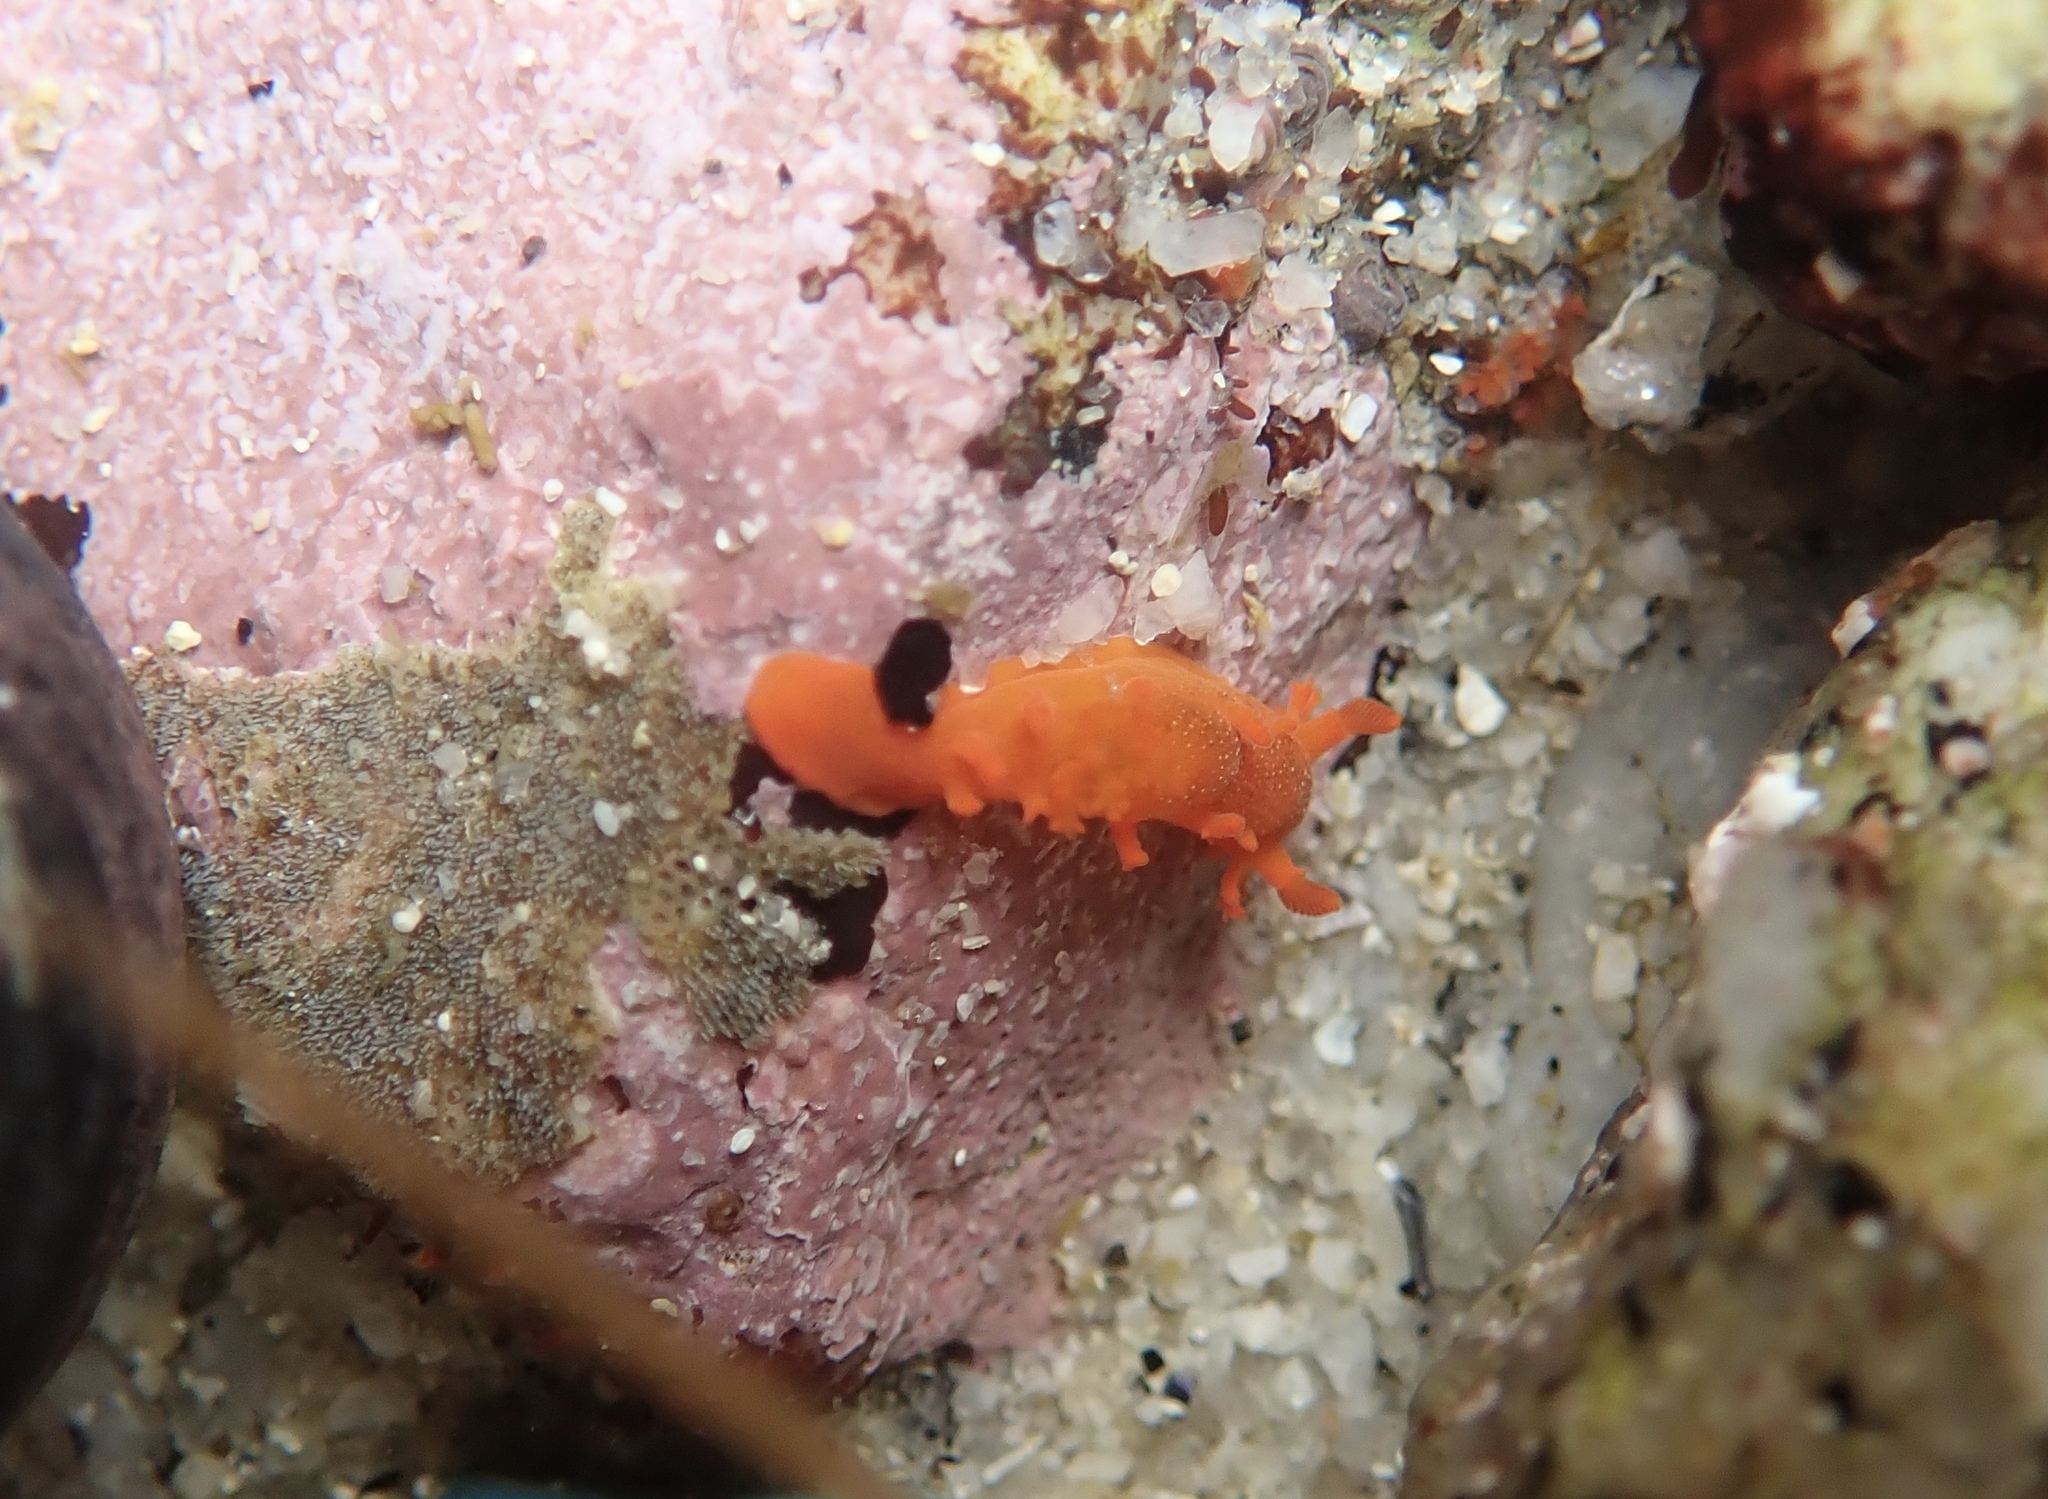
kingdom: Animalia
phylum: Mollusca
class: Gastropoda
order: Nudibranchia
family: Polyceridae
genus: Triopha
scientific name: Triopha maculata
